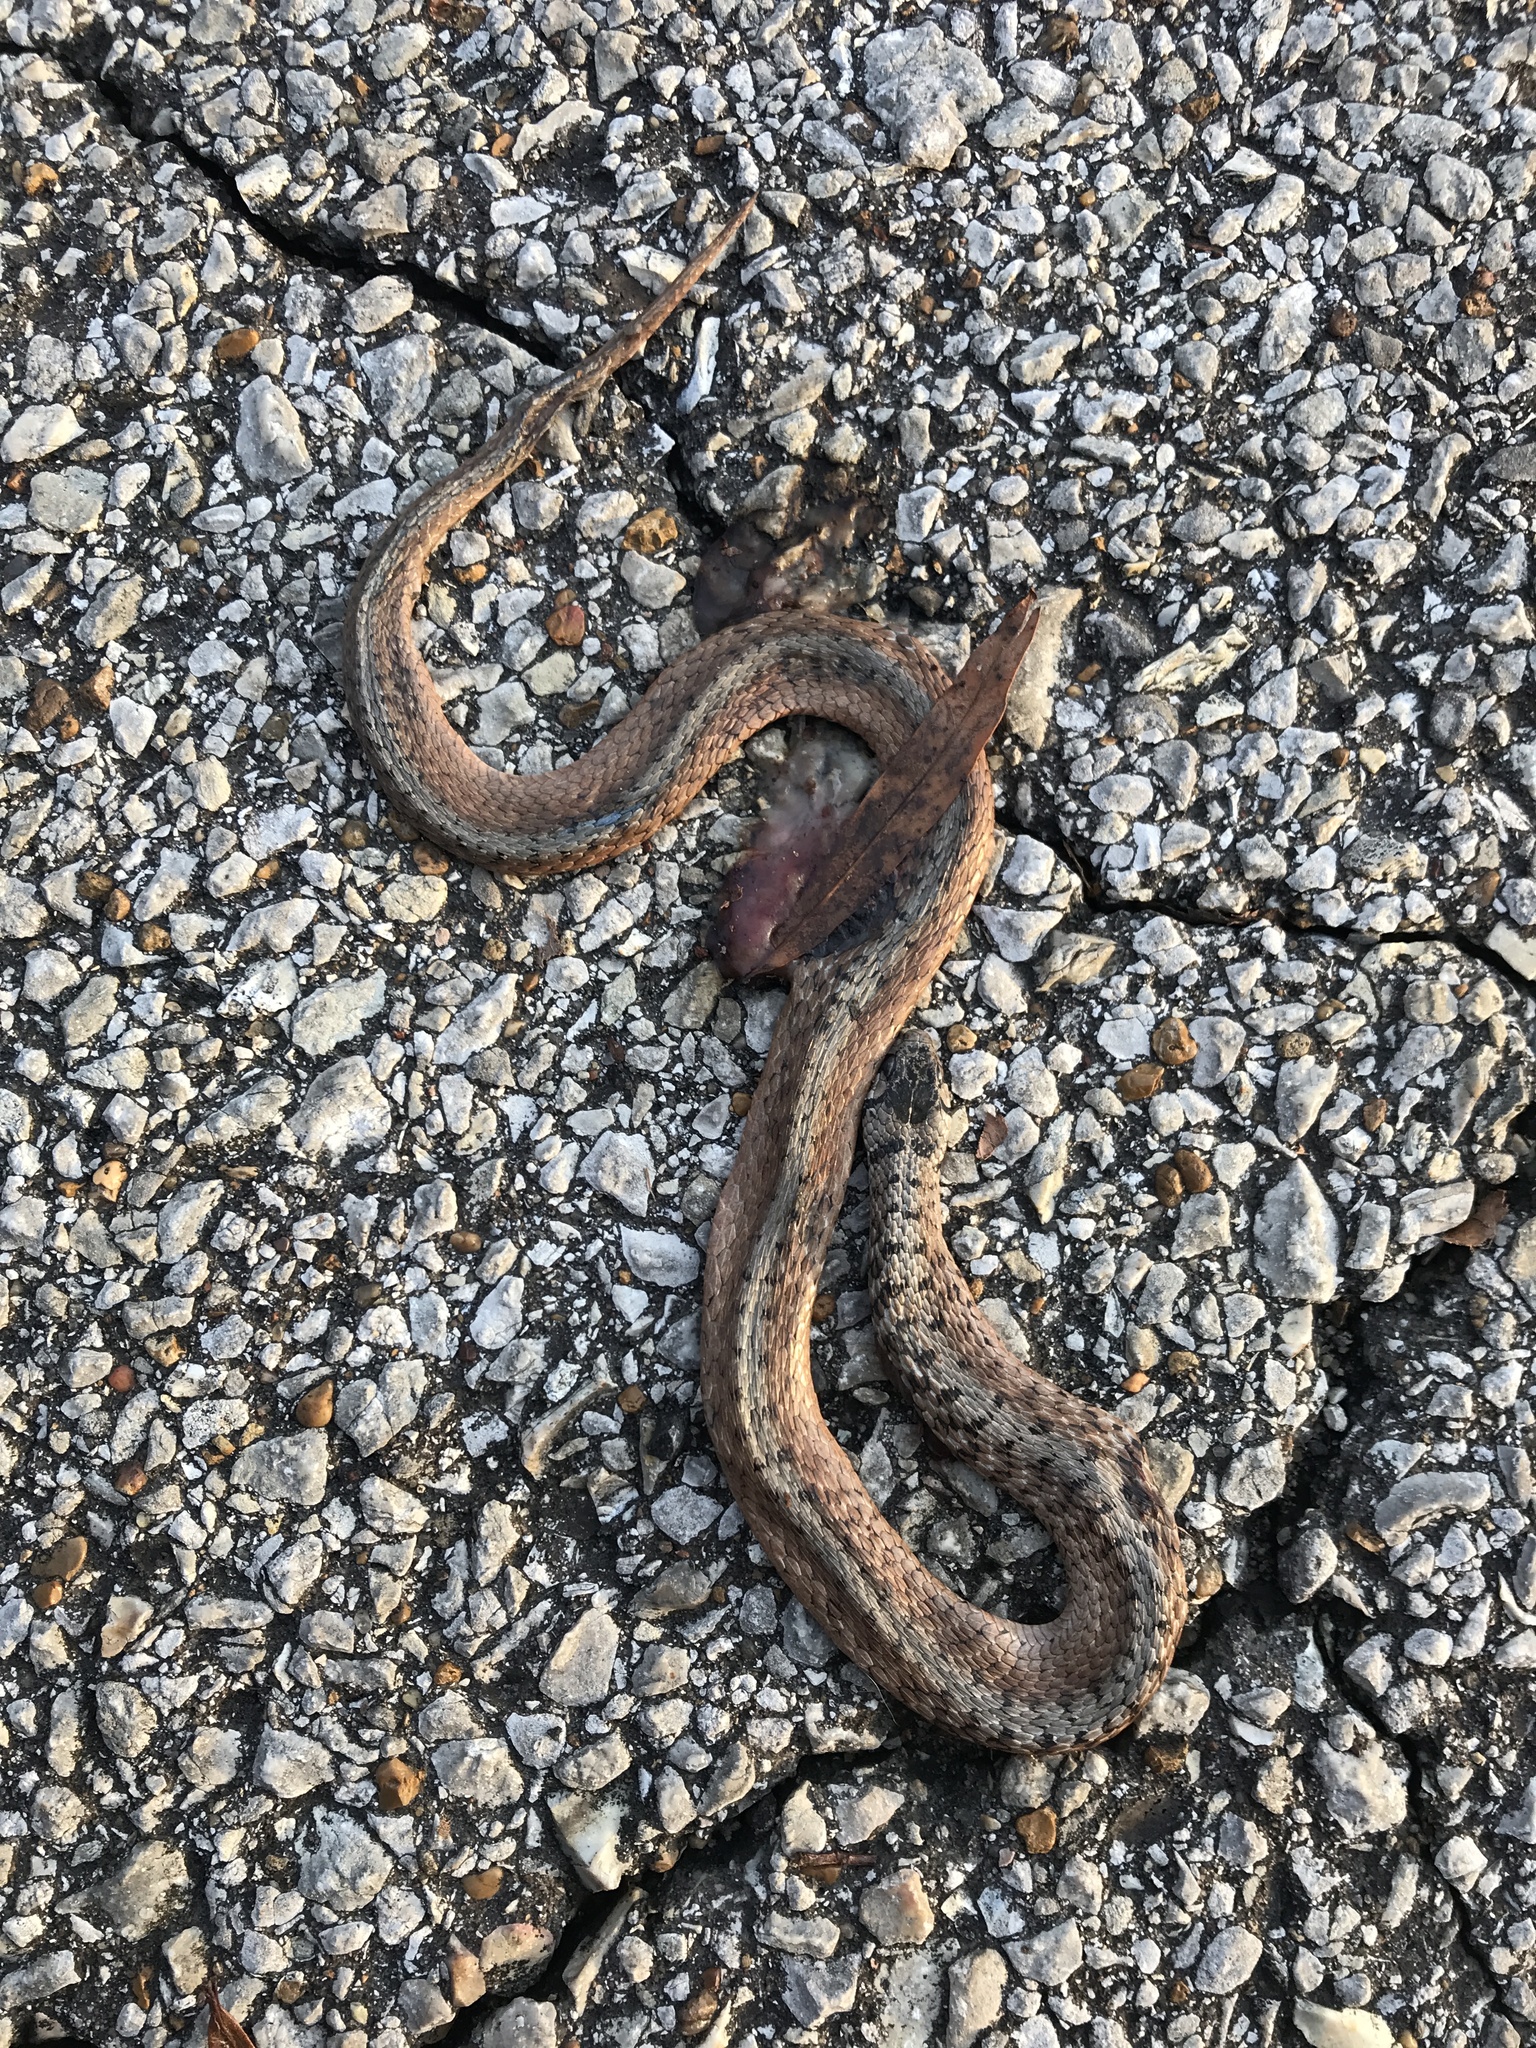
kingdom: Animalia
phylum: Chordata
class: Squamata
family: Colubridae
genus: Storeria
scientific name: Storeria dekayi
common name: (dekay’s) brown snake
